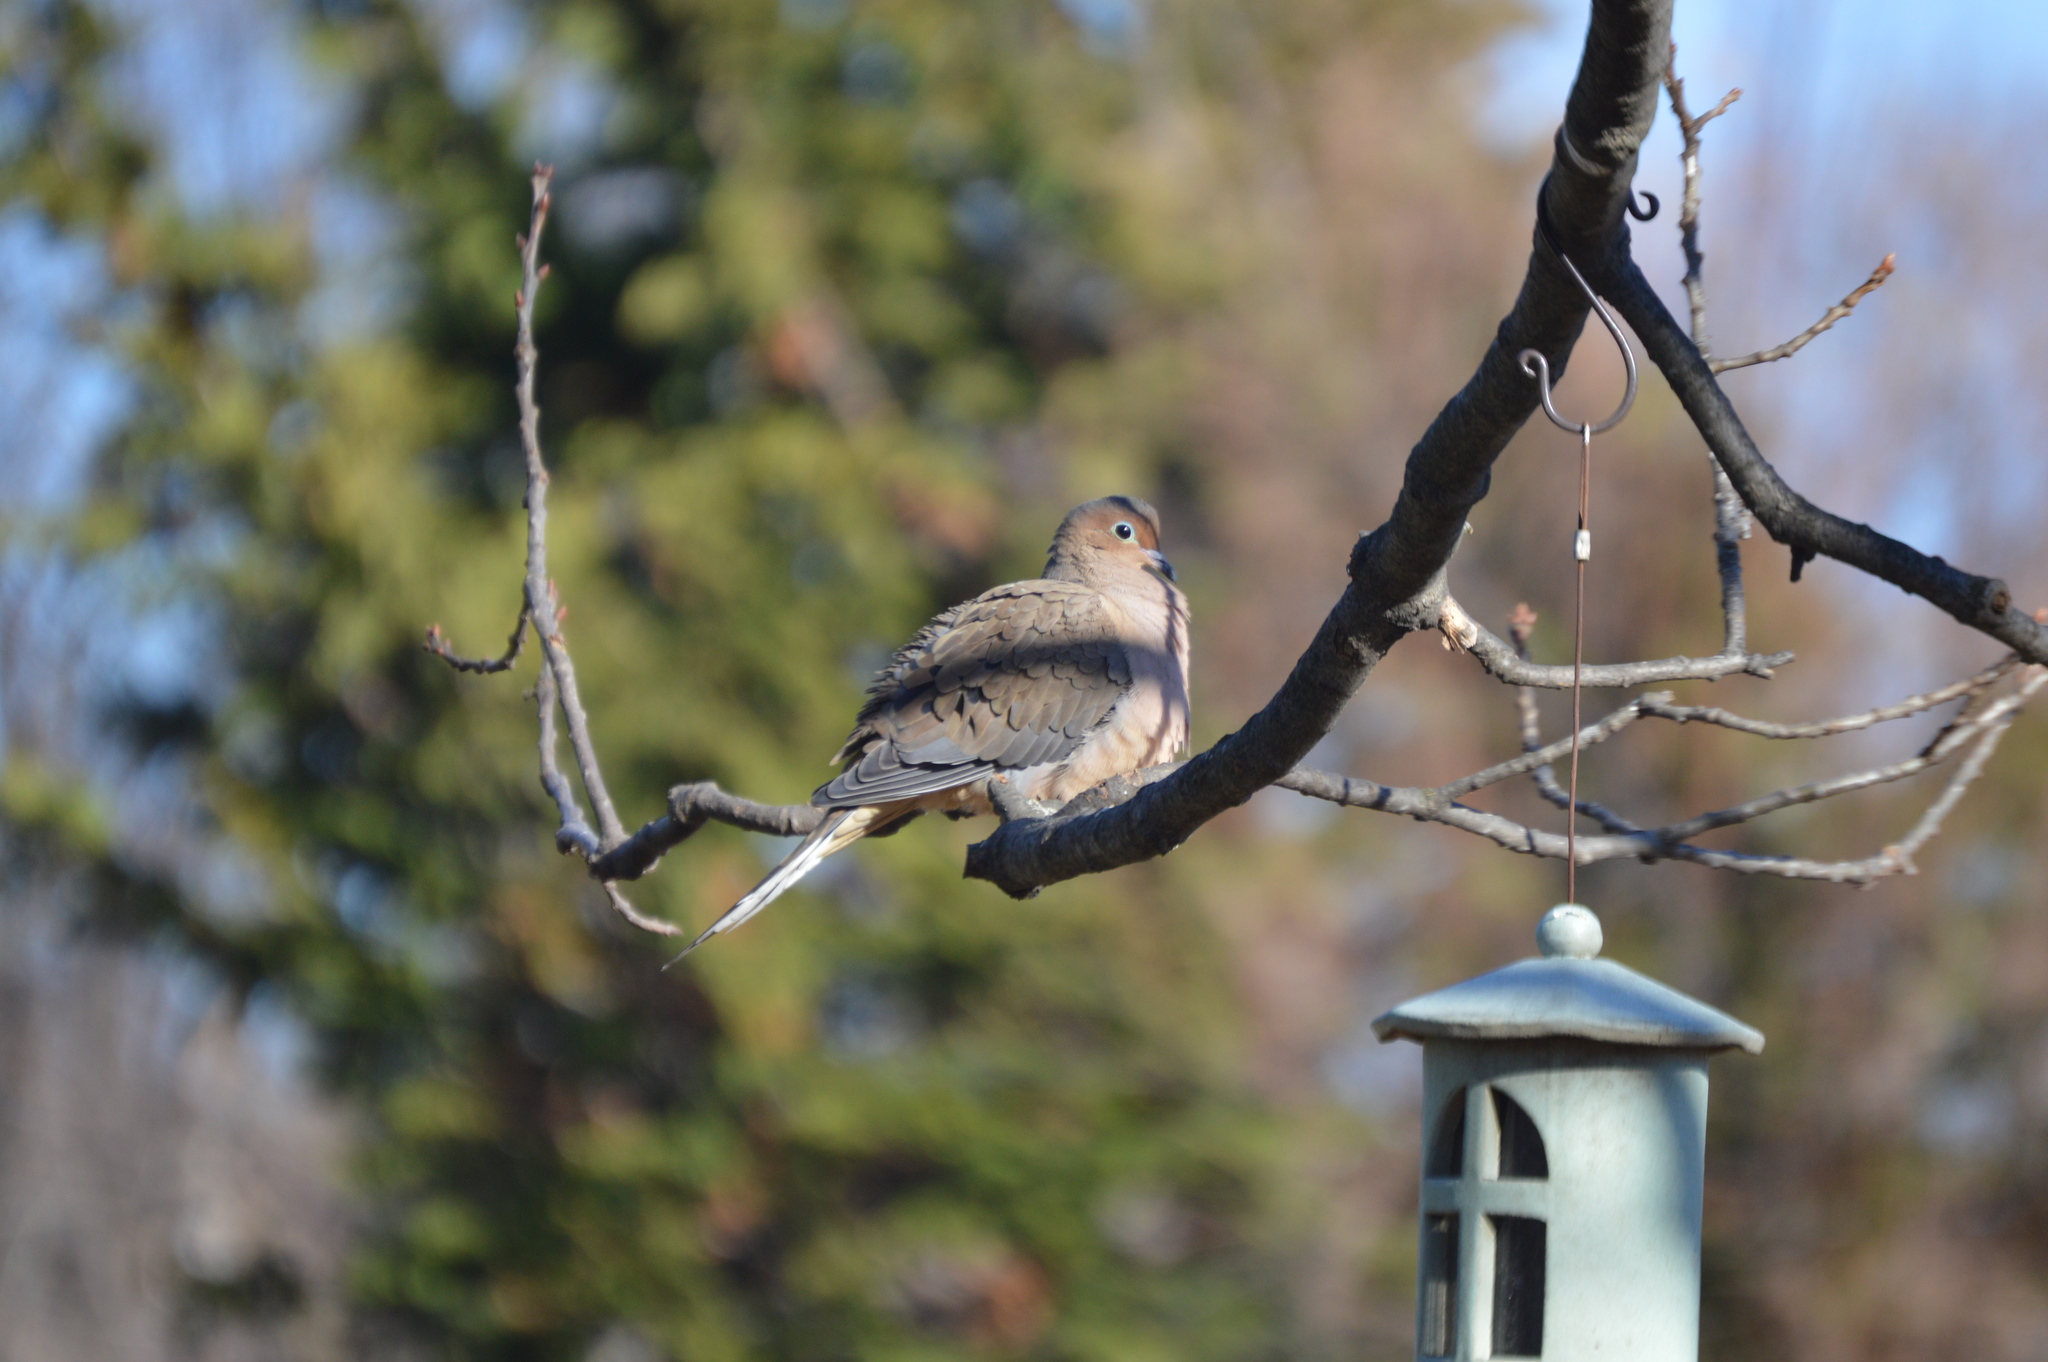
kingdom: Animalia
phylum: Chordata
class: Aves
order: Columbiformes
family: Columbidae
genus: Zenaida
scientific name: Zenaida macroura
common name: Mourning dove
